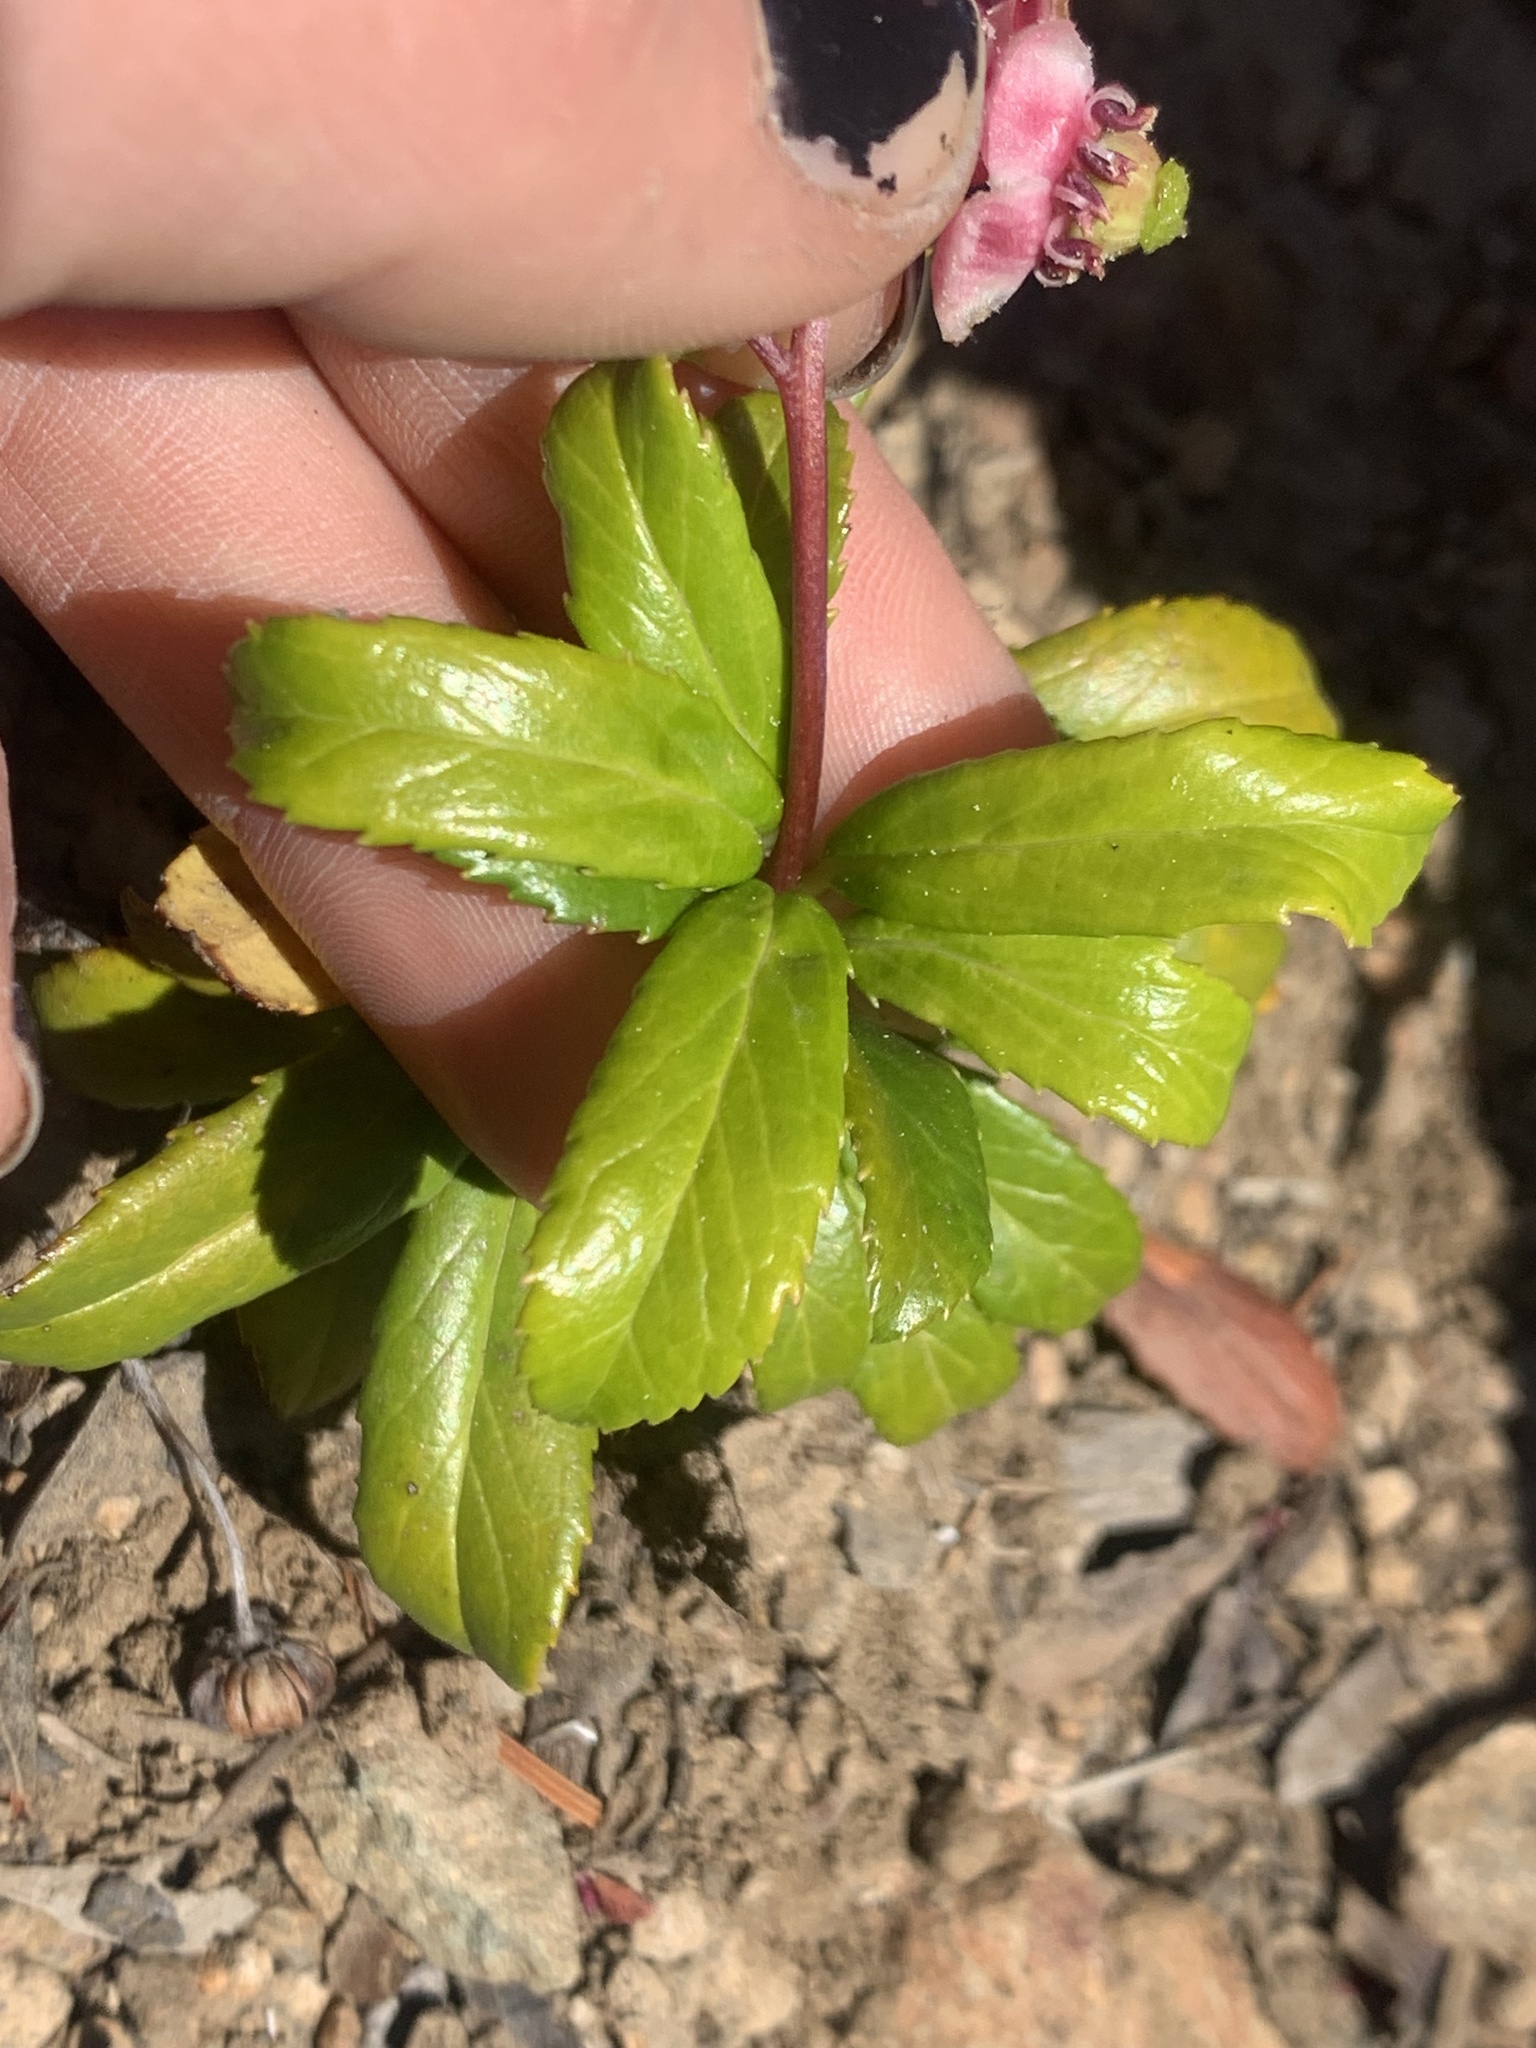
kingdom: Plantae
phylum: Tracheophyta
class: Magnoliopsida
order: Ericales
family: Ericaceae
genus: Chimaphila
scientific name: Chimaphila umbellata
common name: Pipsissewa
